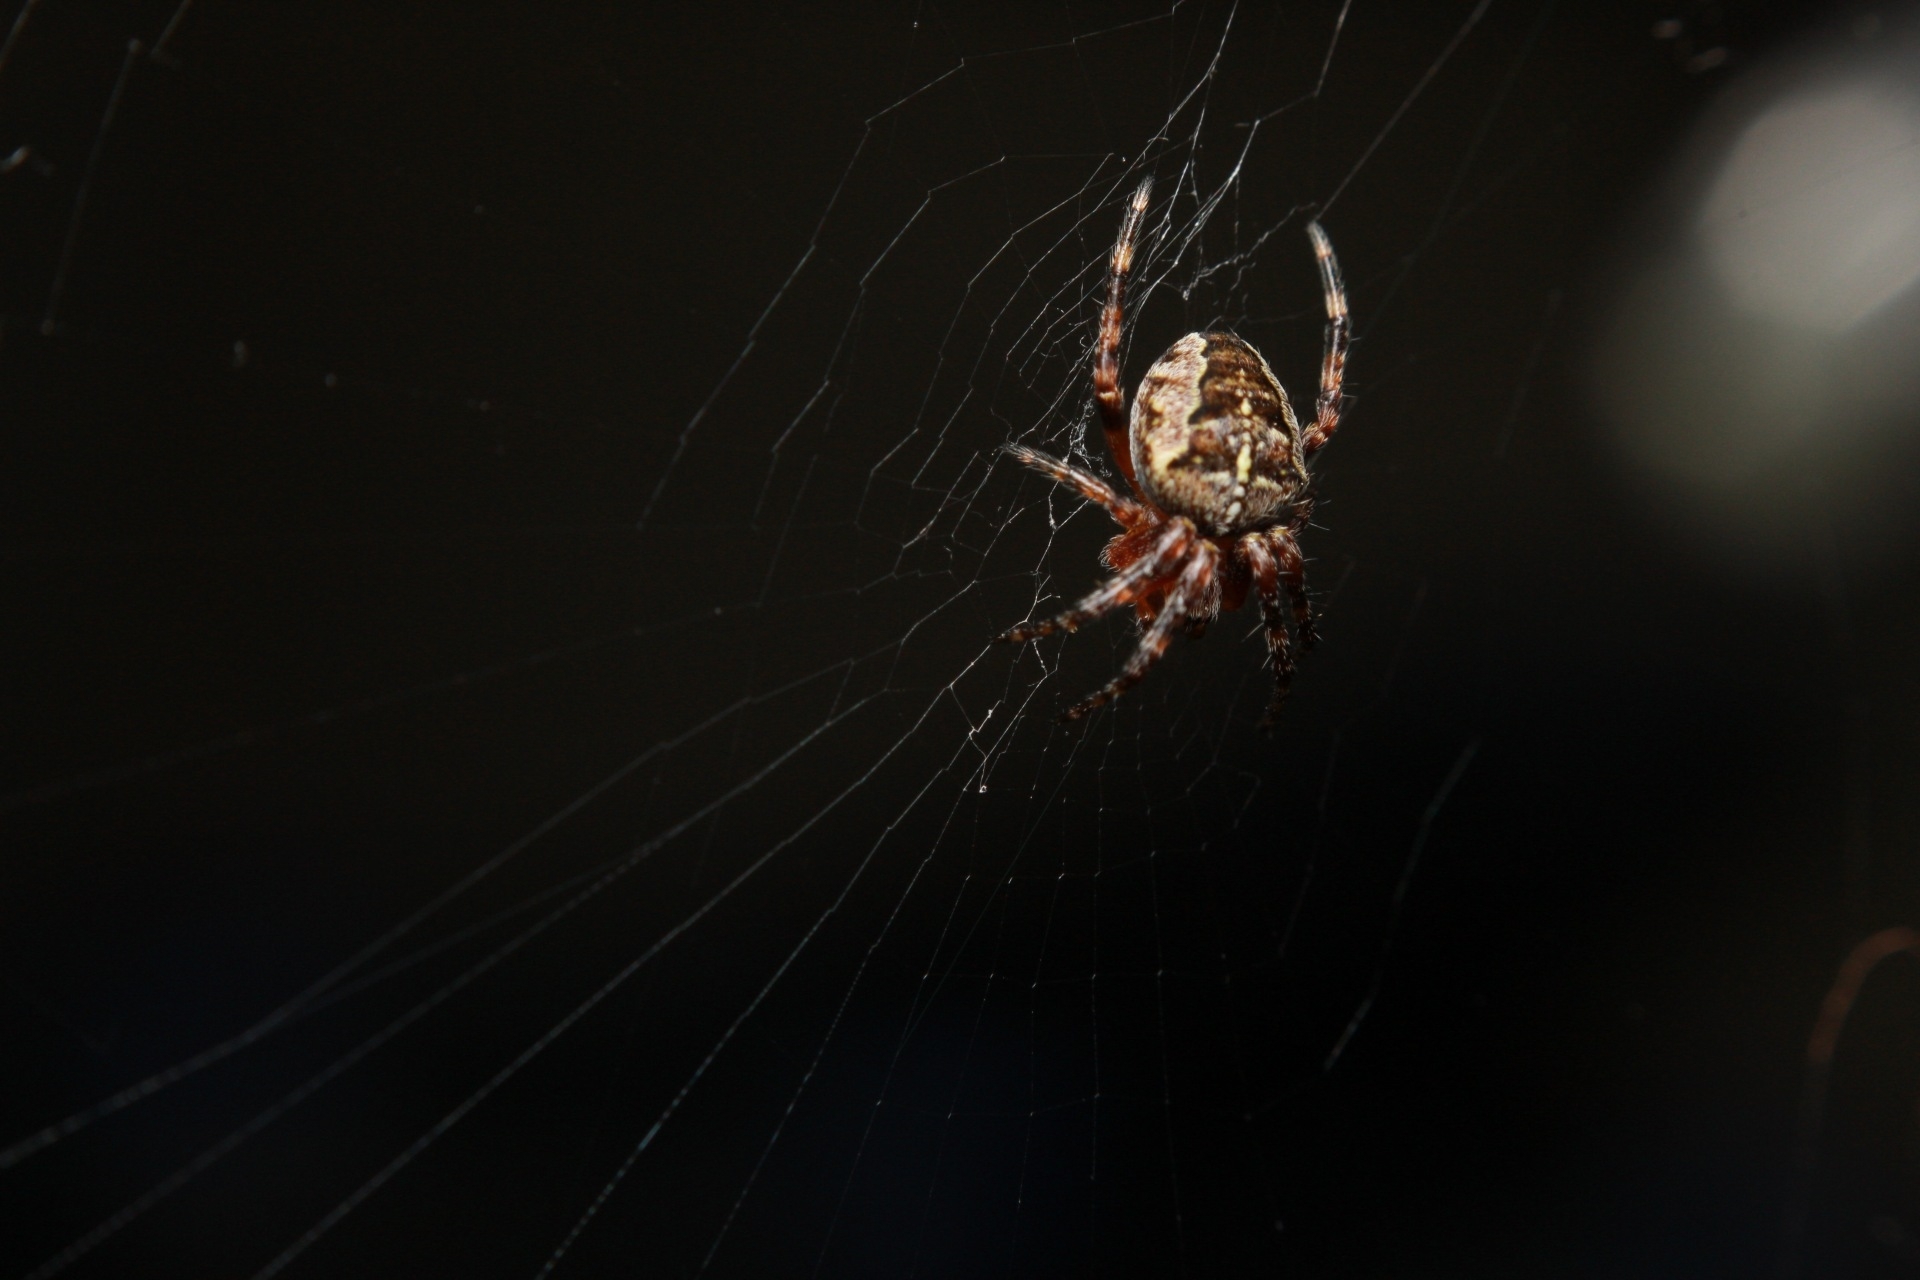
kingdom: Animalia
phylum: Arthropoda
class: Arachnida
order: Araneae
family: Araneidae
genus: Araneus
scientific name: Araneus diadematus
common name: Cross orbweaver
